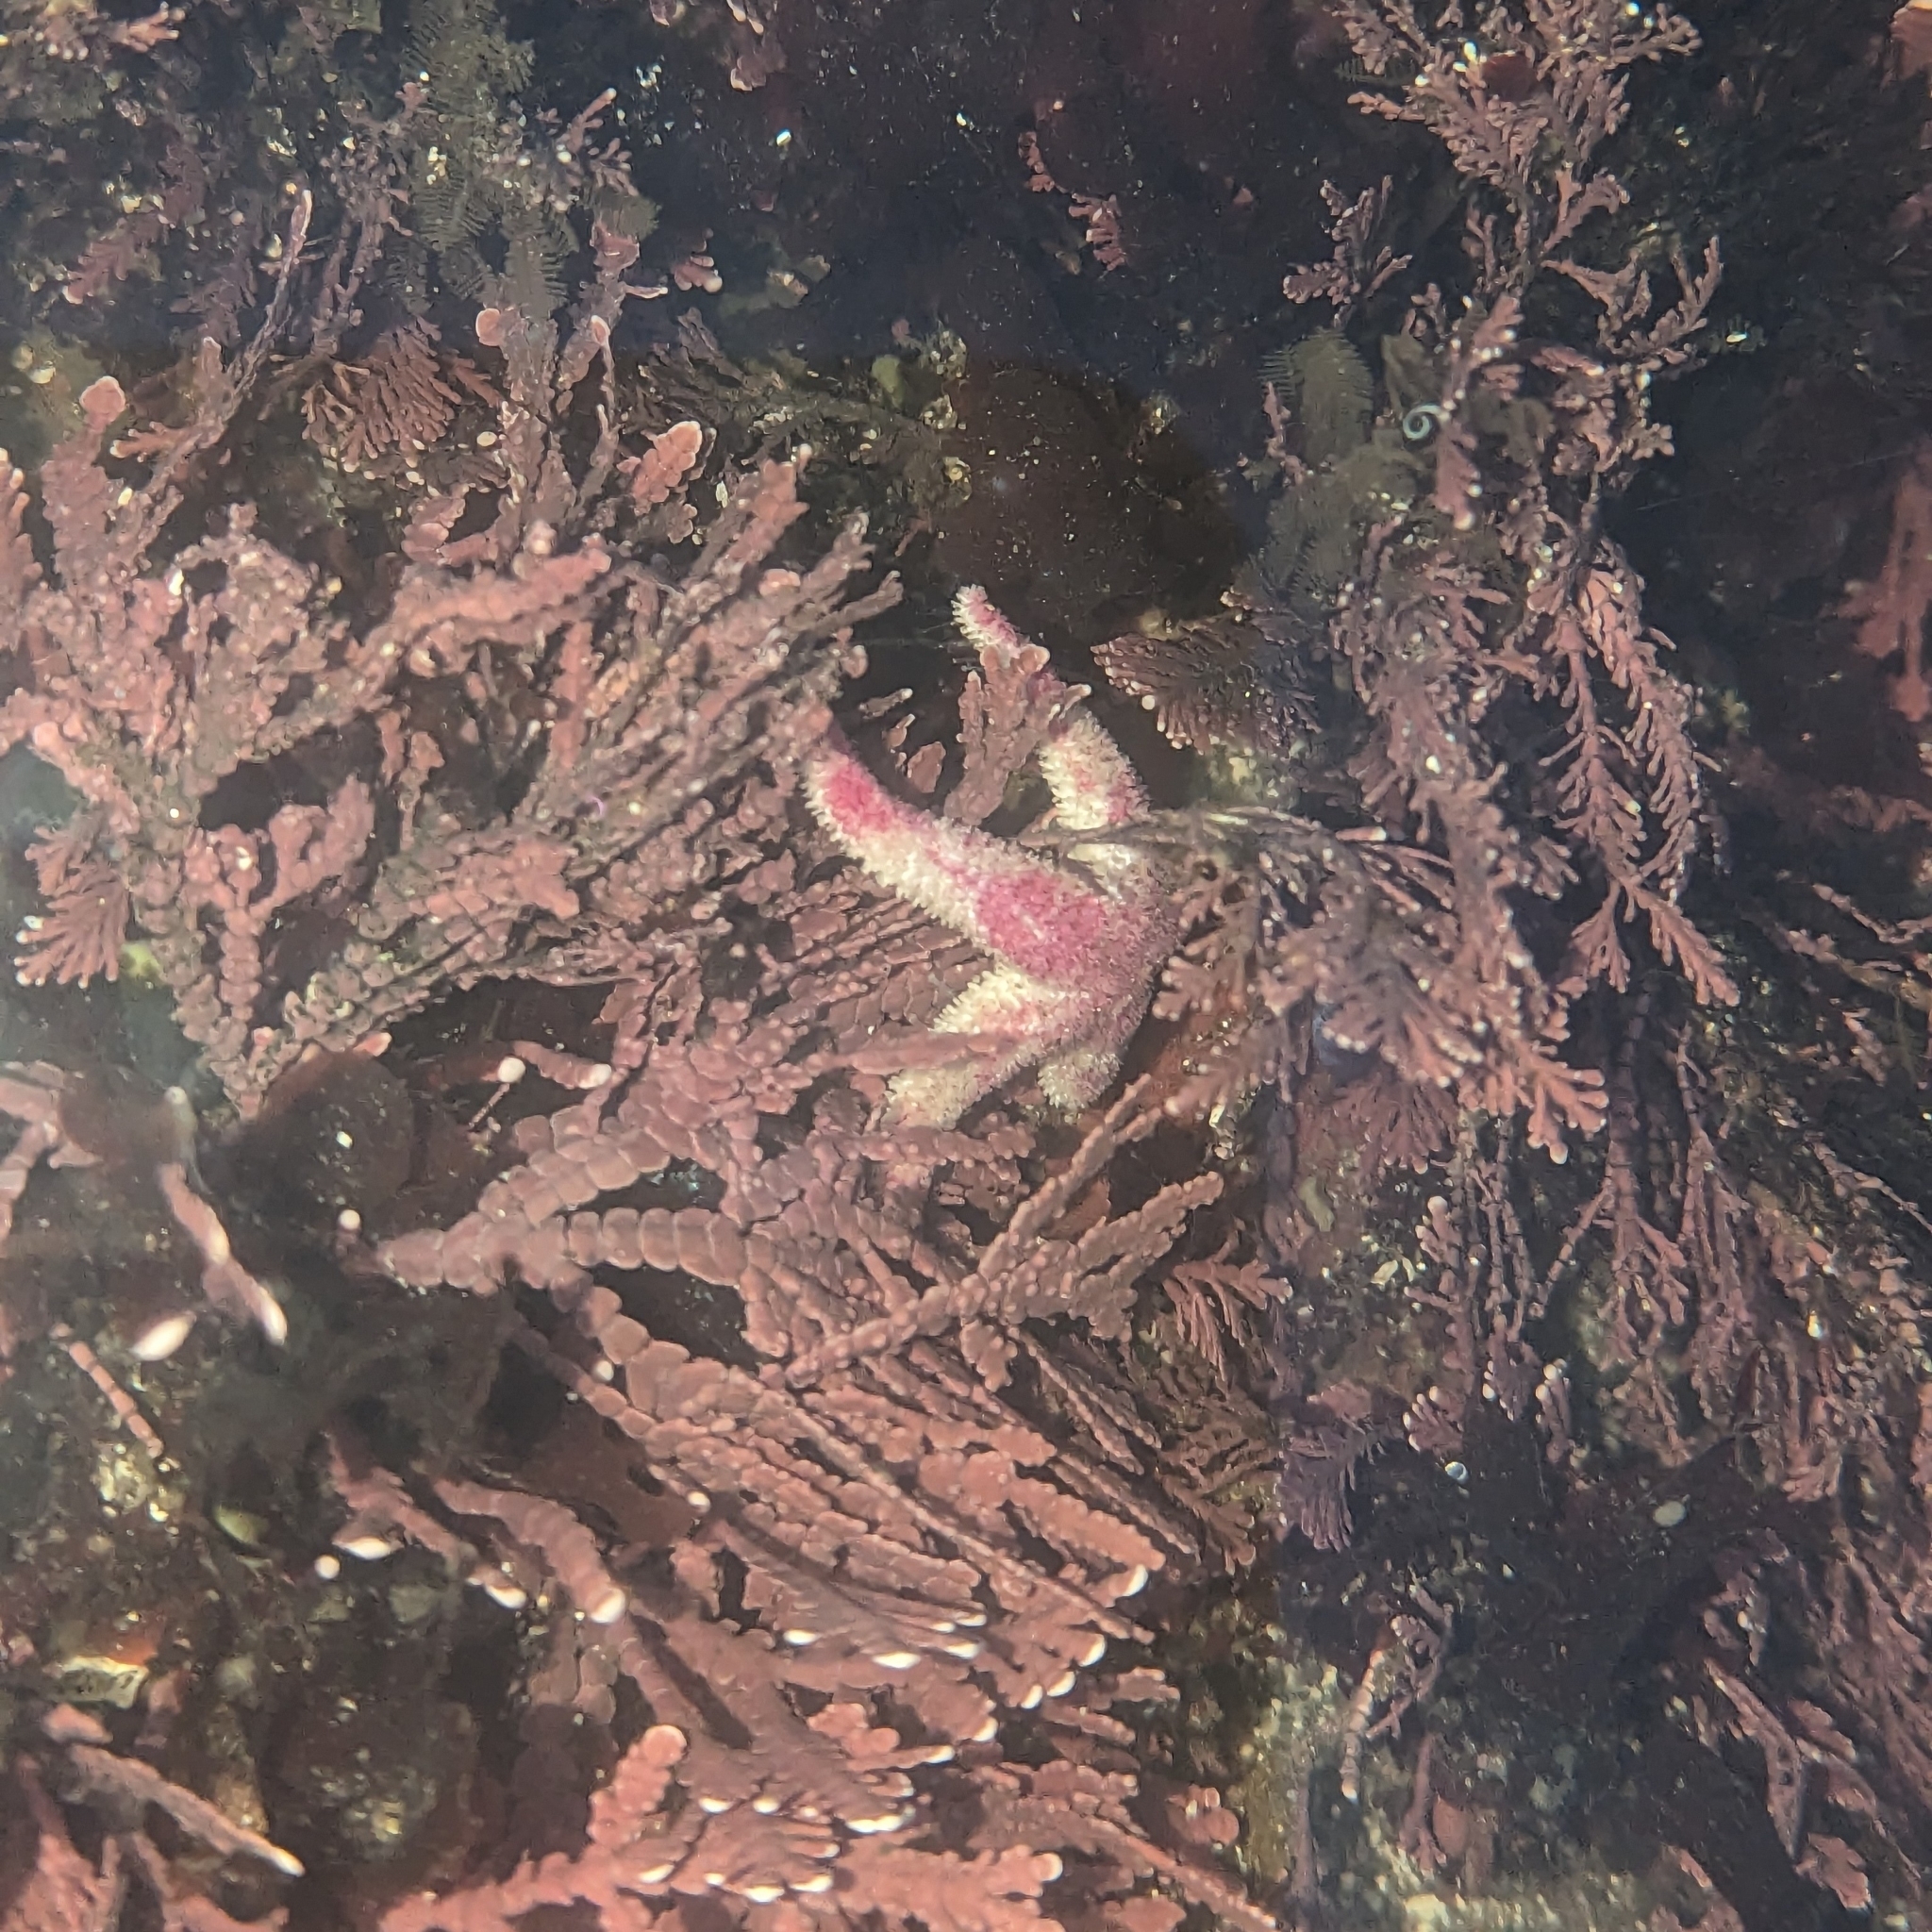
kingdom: Animalia
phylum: Echinodermata
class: Asteroidea
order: Forcipulatida
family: Asteriidae
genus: Leptasterias
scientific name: Leptasterias hexactis
